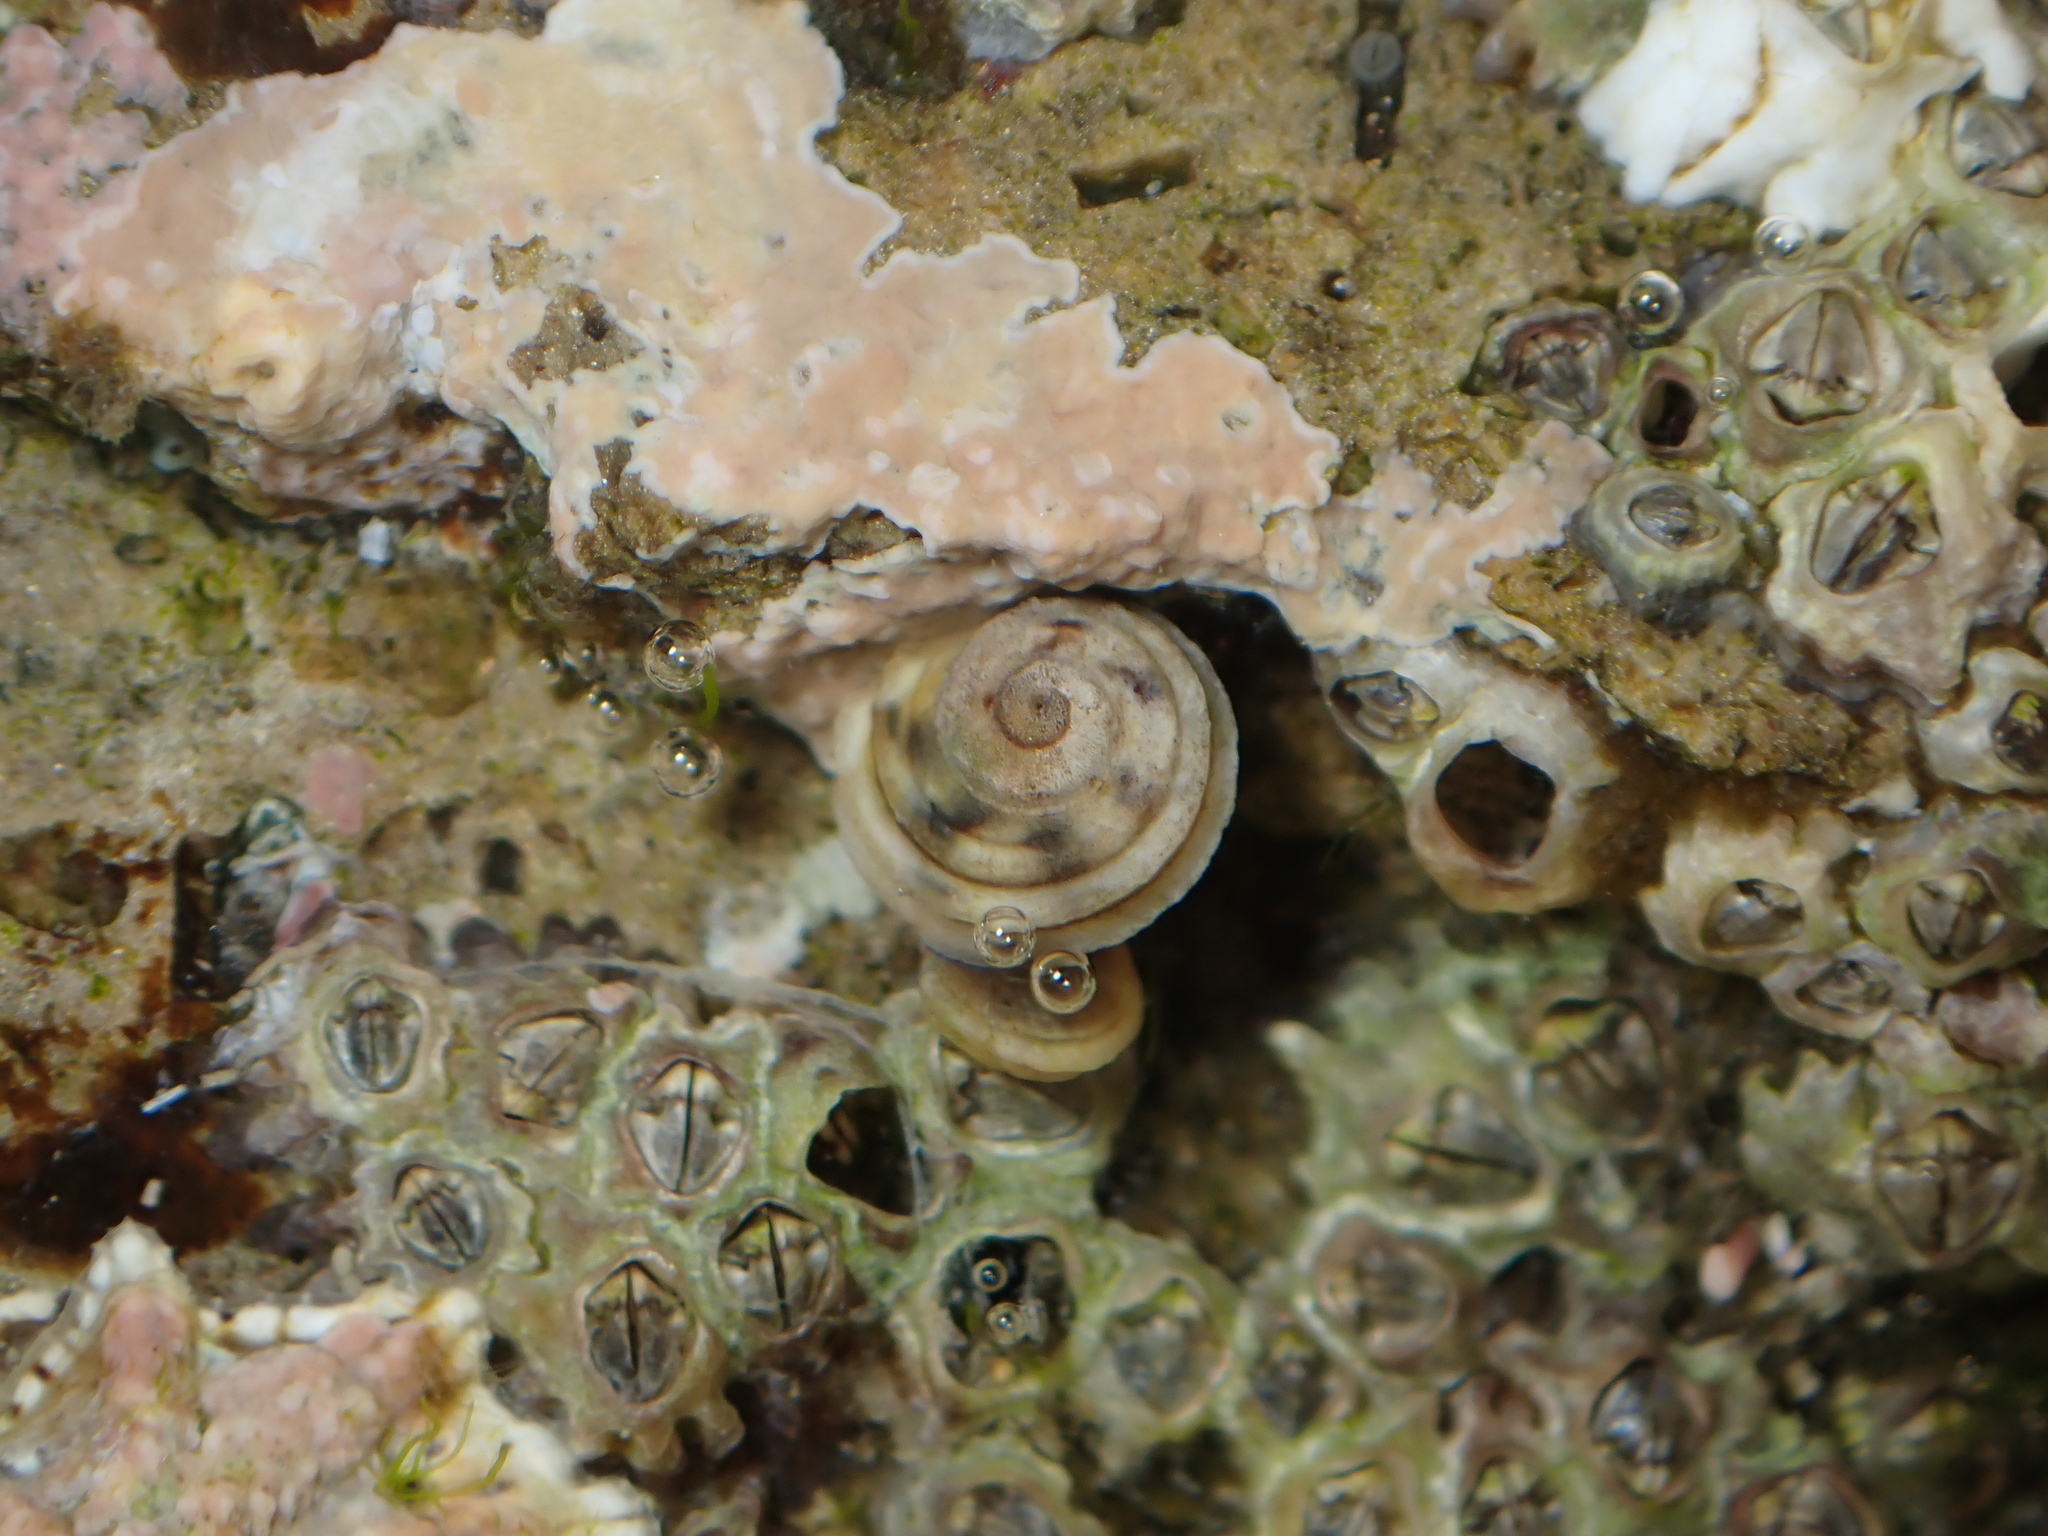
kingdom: Animalia
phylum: Mollusca
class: Gastropoda
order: Littorinimorpha
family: Littorinidae
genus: Risellopsis
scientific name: Risellopsis varia
